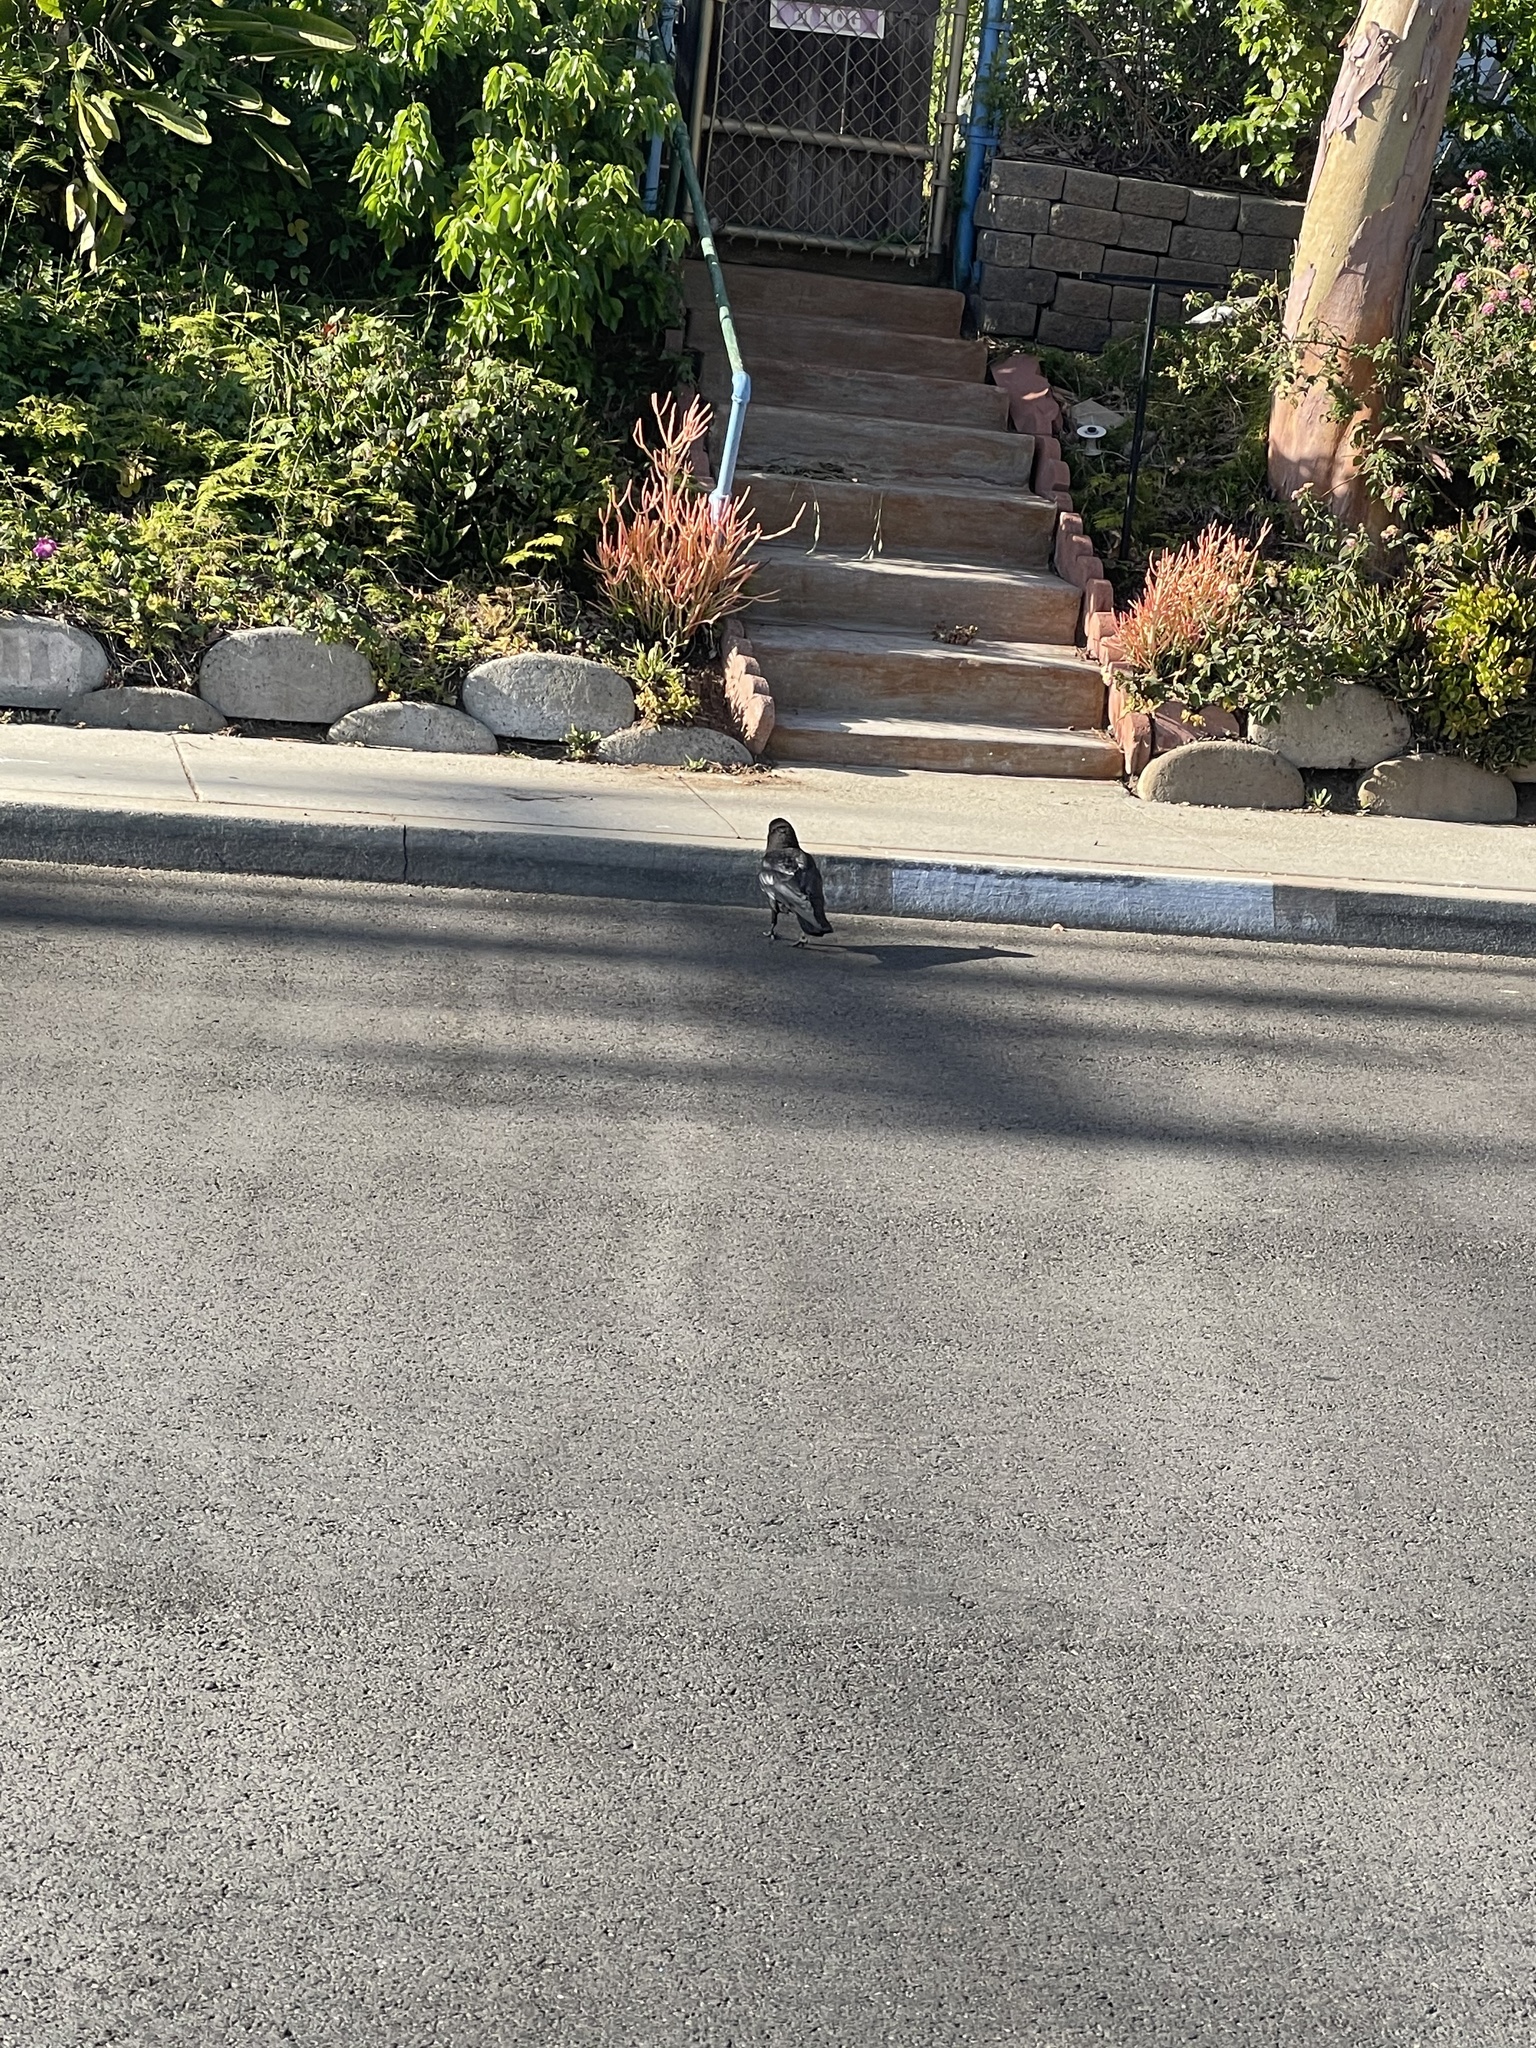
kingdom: Animalia
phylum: Chordata
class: Aves
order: Passeriformes
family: Corvidae
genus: Corvus
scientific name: Corvus brachyrhynchos
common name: American crow
